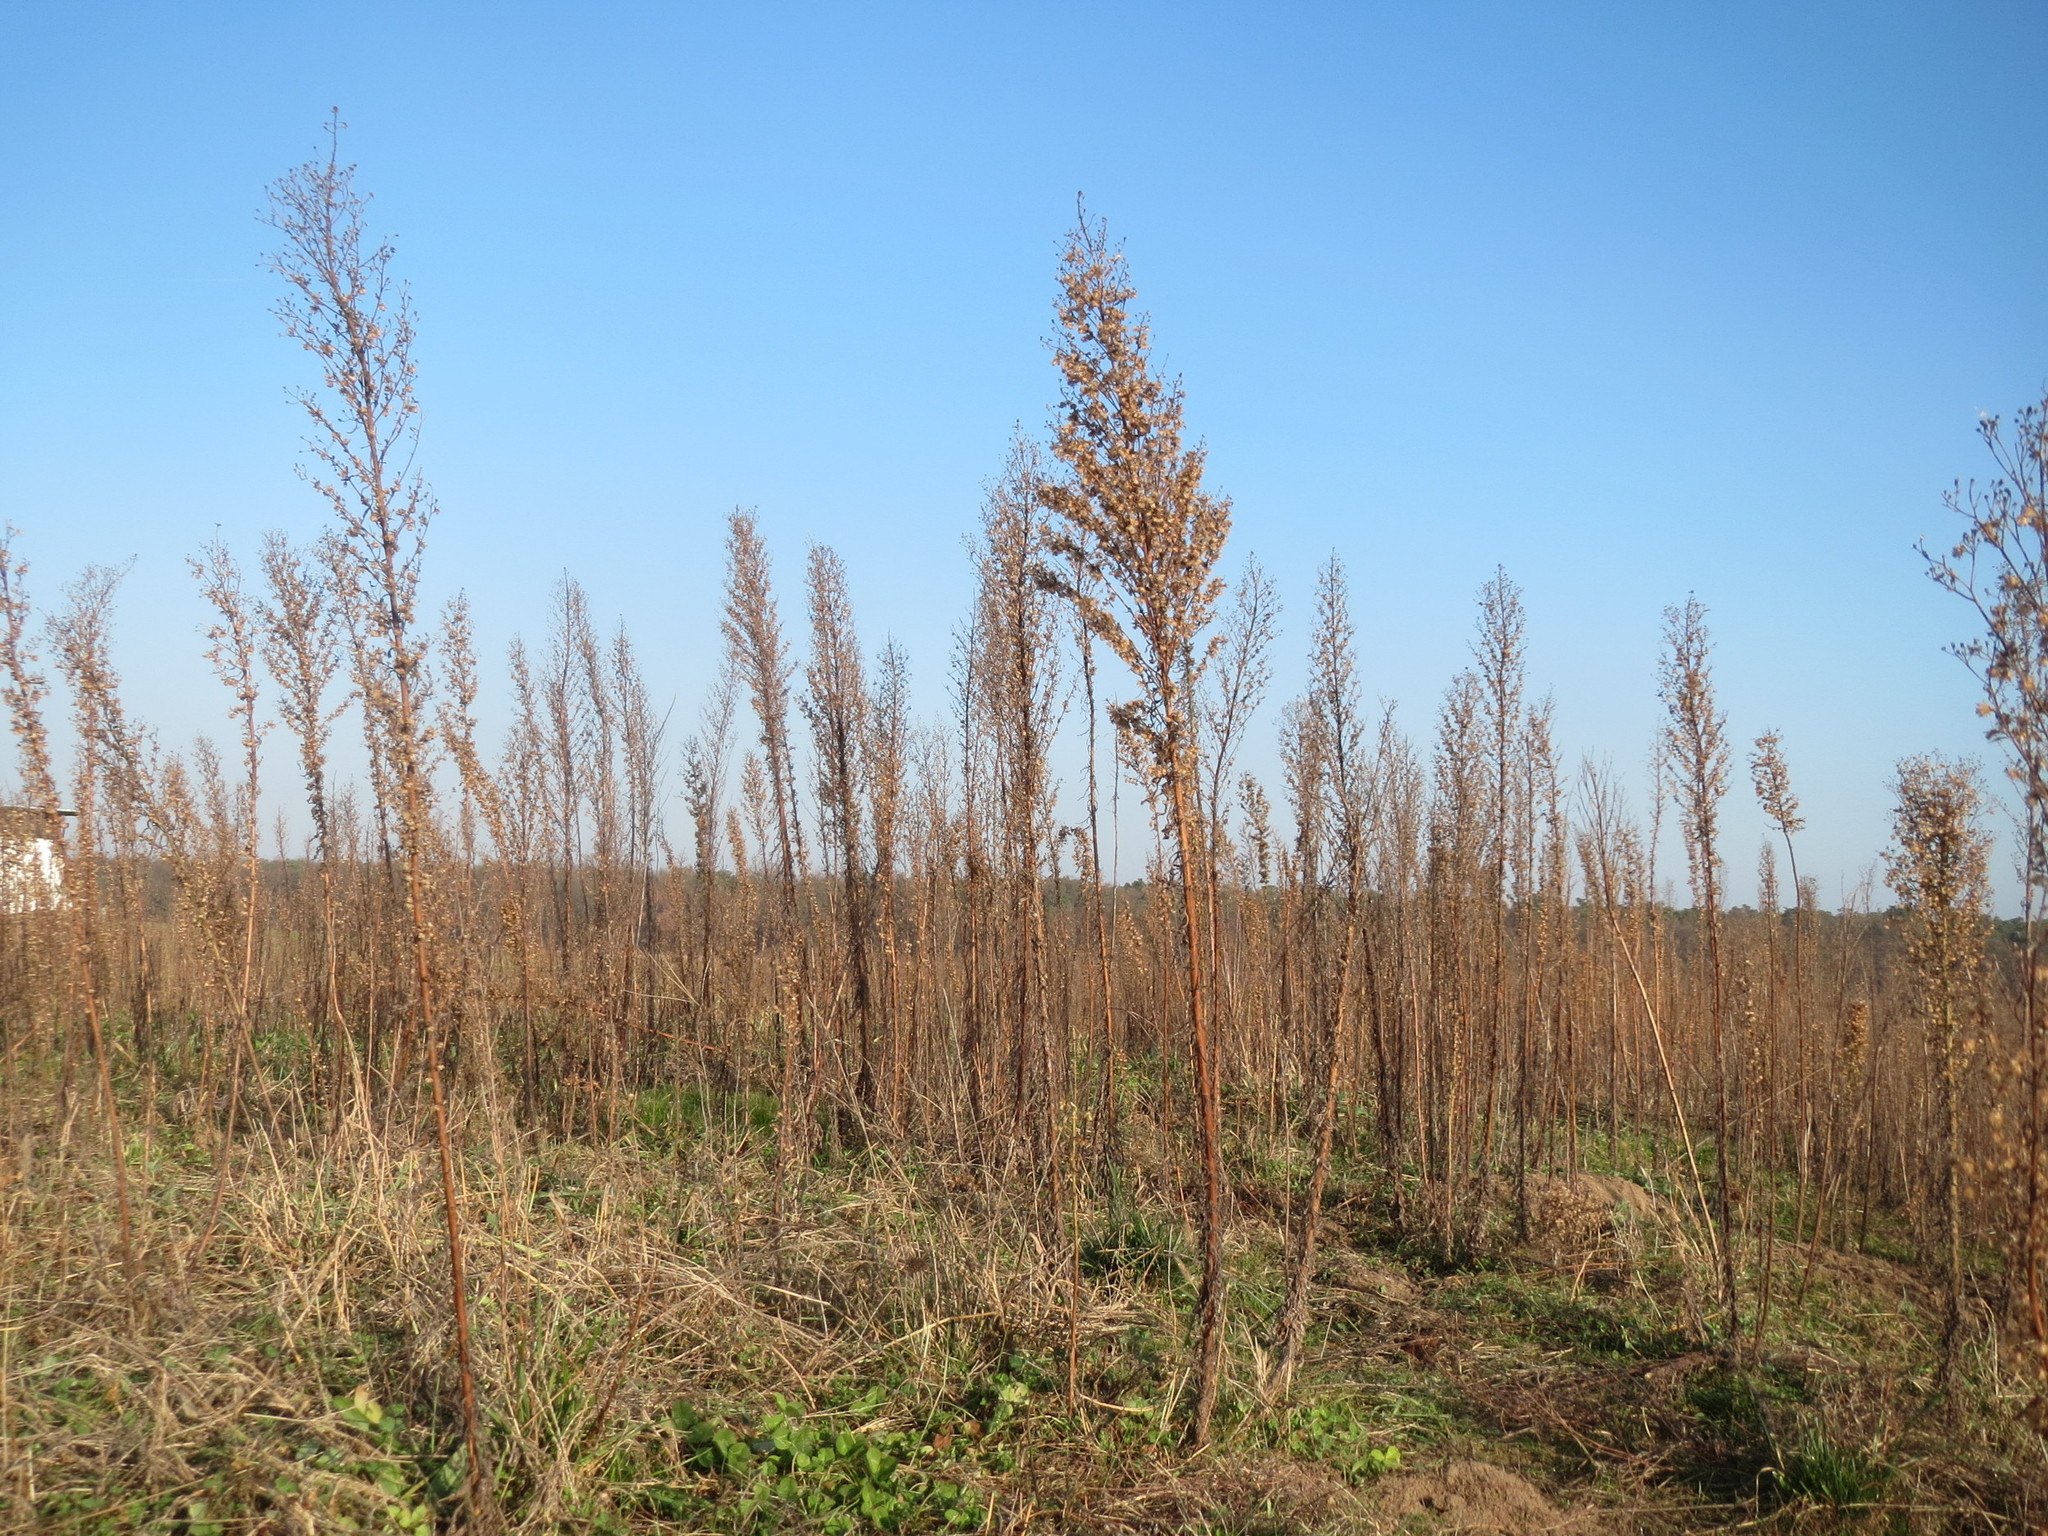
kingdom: Plantae
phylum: Tracheophyta
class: Magnoliopsida
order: Asterales
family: Asteraceae
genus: Erigeron
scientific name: Erigeron canadensis
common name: Canadian fleabane
